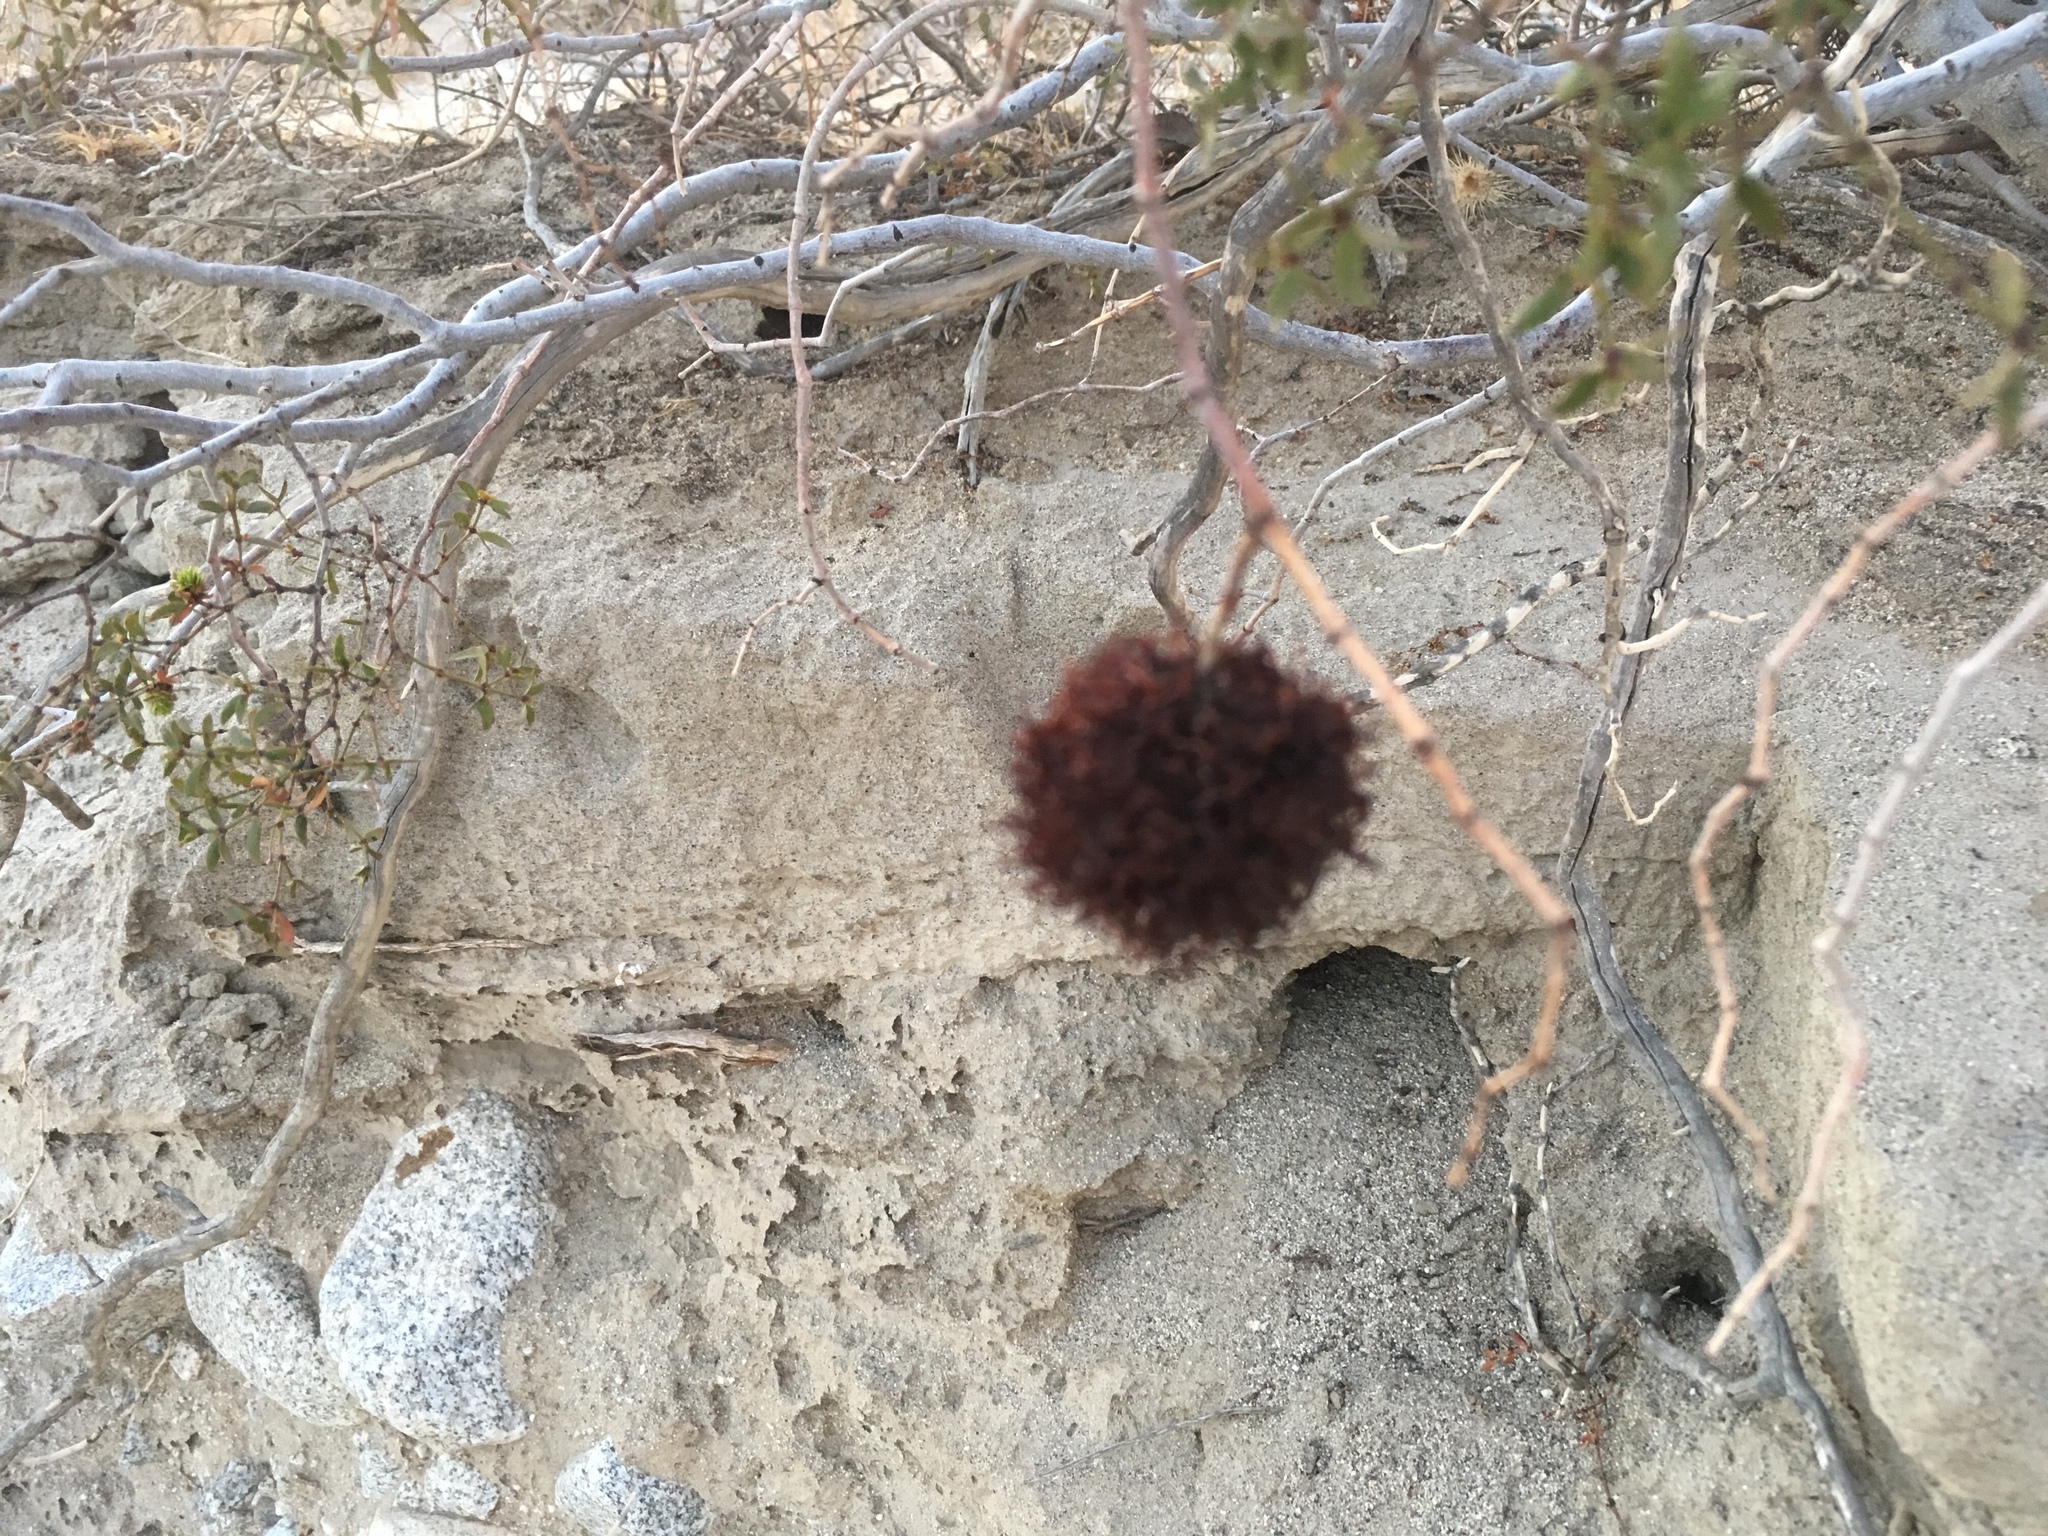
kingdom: Animalia
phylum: Arthropoda
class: Insecta
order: Diptera
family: Cecidomyiidae
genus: Asphondylia
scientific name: Asphondylia auripila
